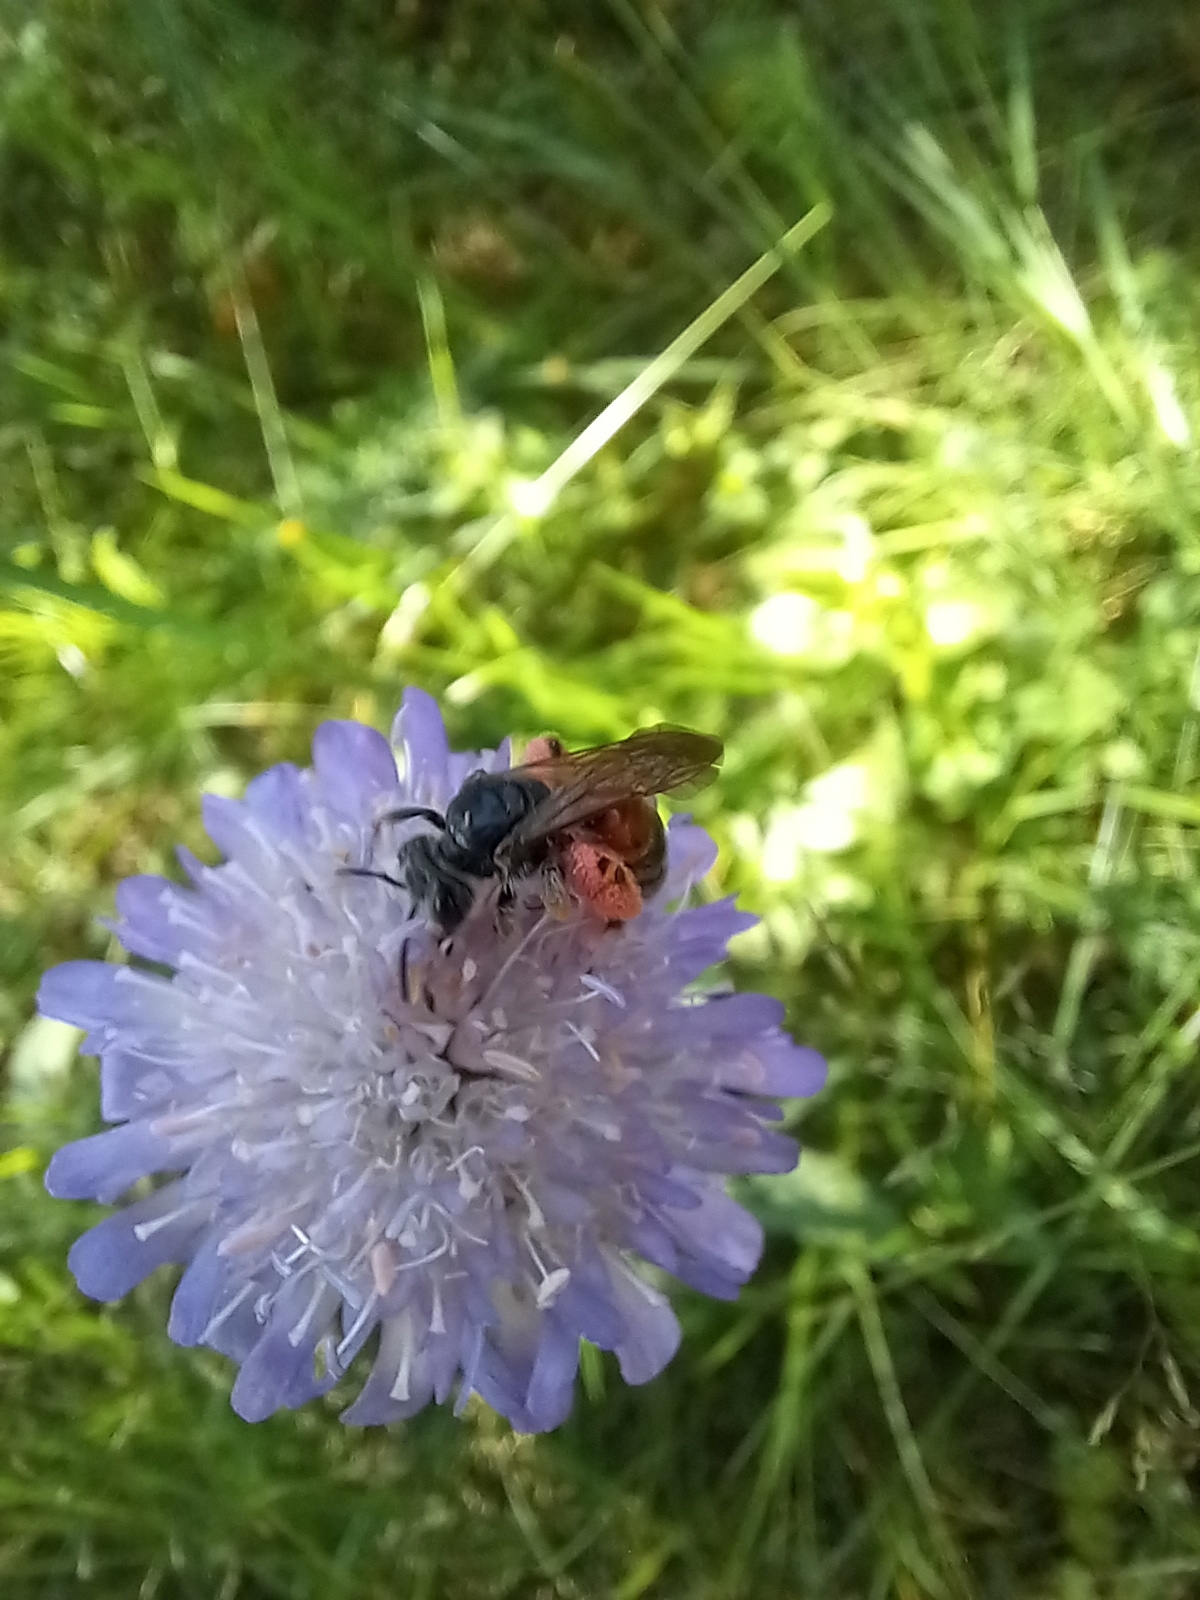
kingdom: Animalia
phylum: Arthropoda
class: Insecta
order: Hymenoptera
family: Andrenidae
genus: Andrena
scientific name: Andrena hattorfiana
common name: Large scabious mining bee
